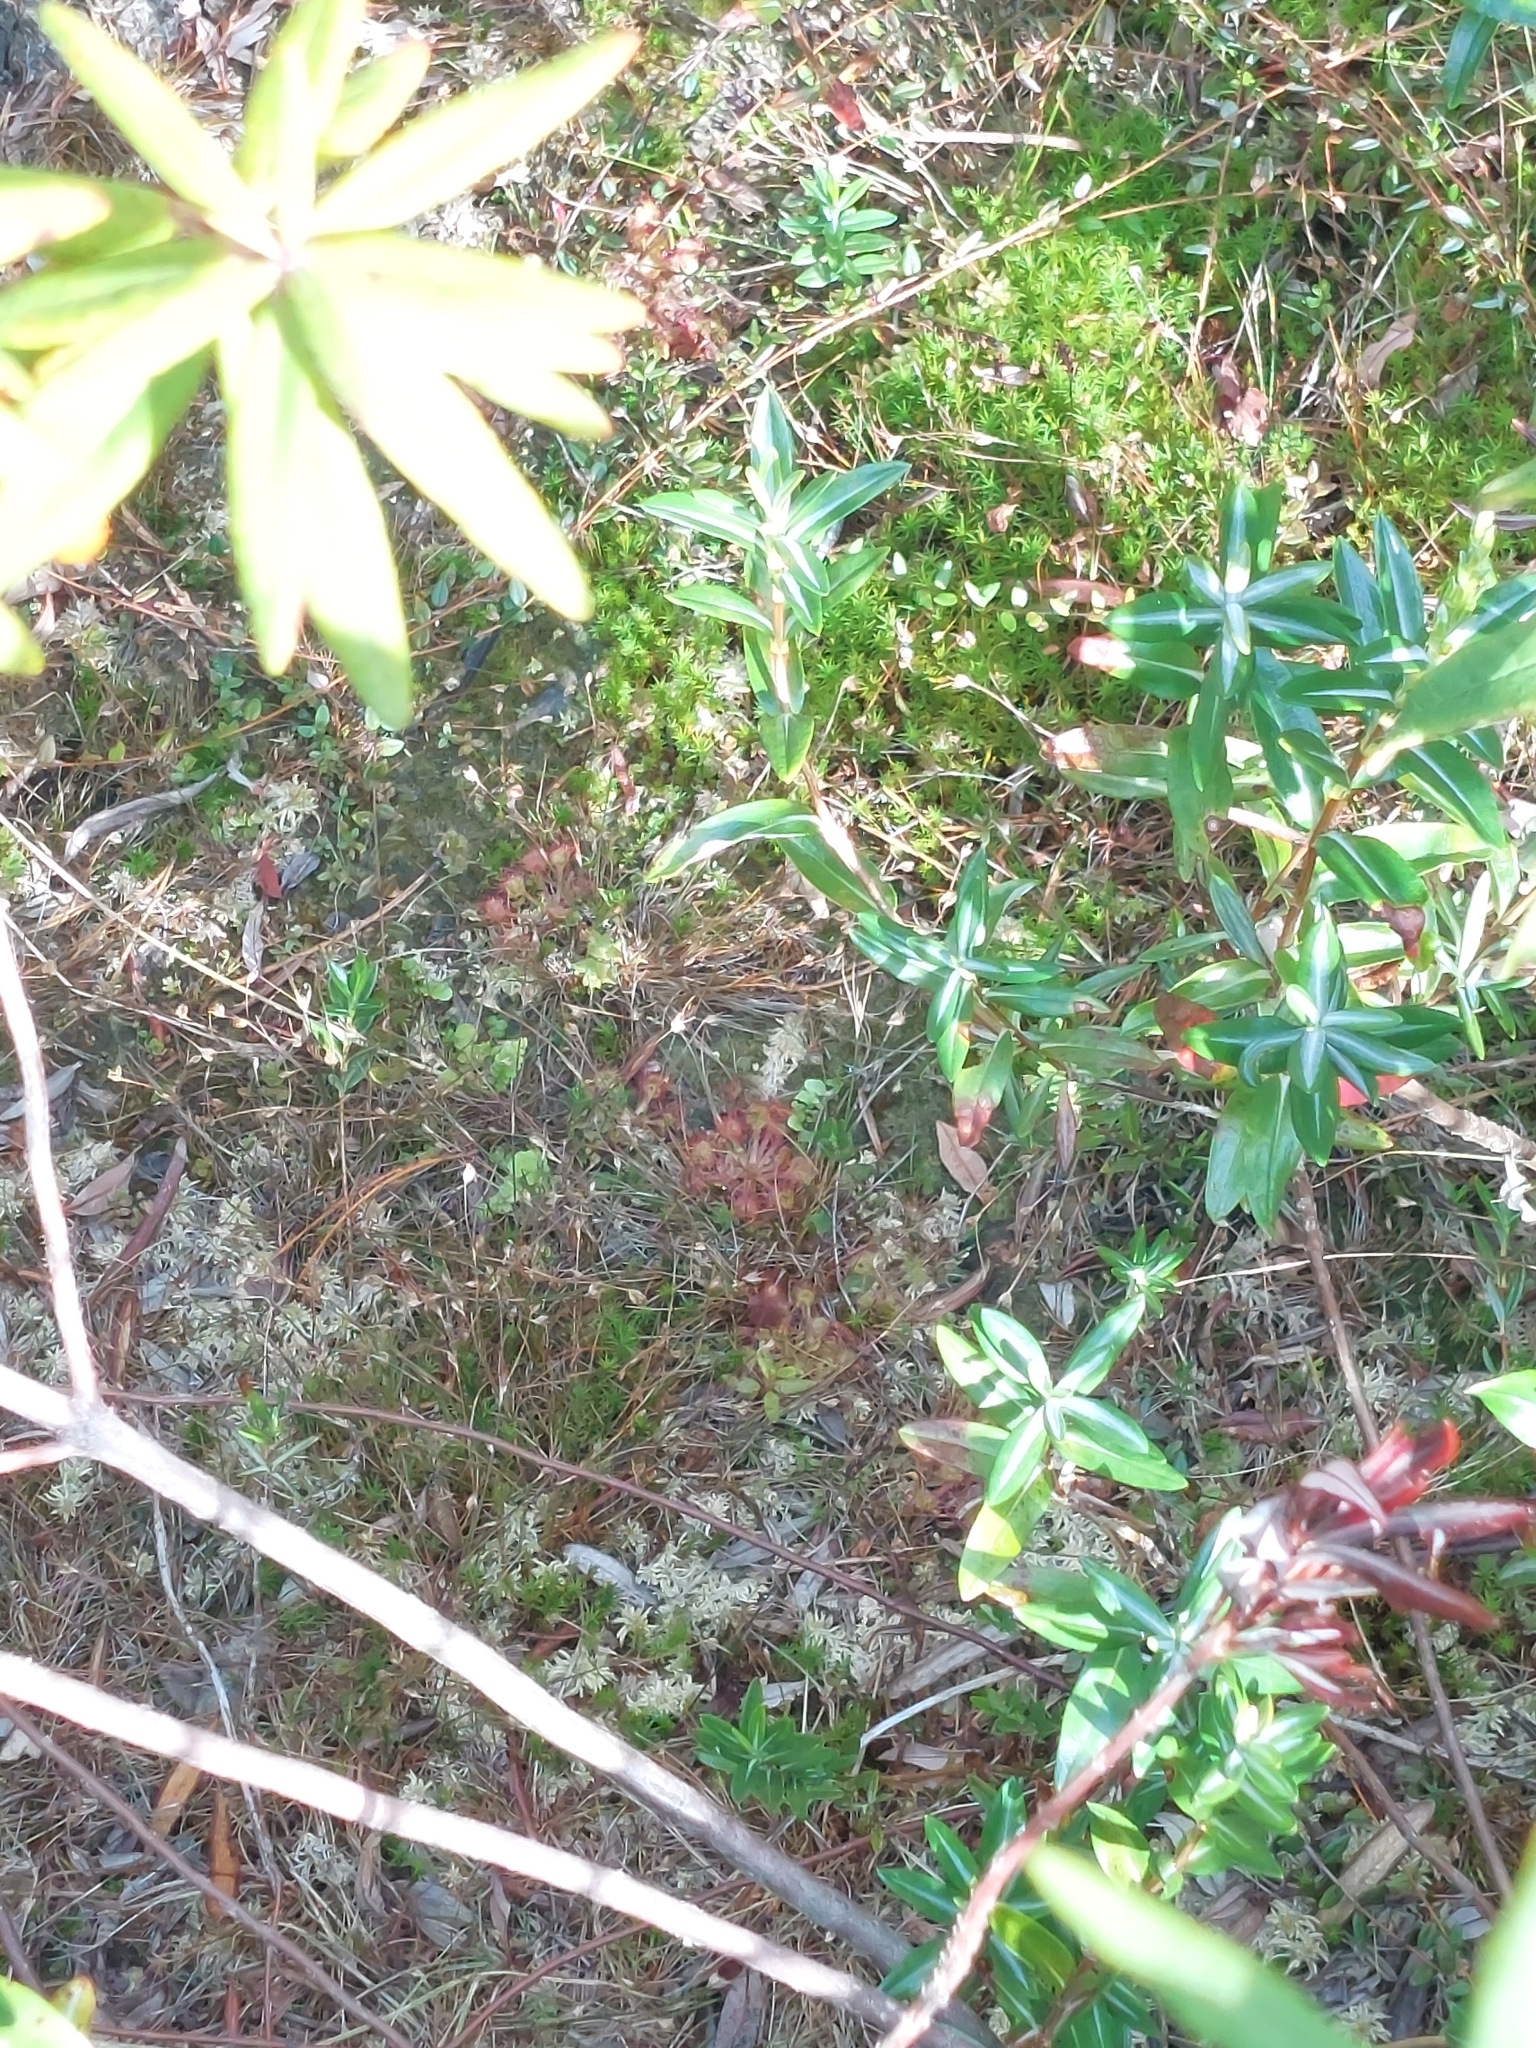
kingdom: Plantae
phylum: Tracheophyta
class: Magnoliopsida
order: Caryophyllales
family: Droseraceae
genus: Drosera
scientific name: Drosera rotundifolia
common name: Round-leaved sundew
